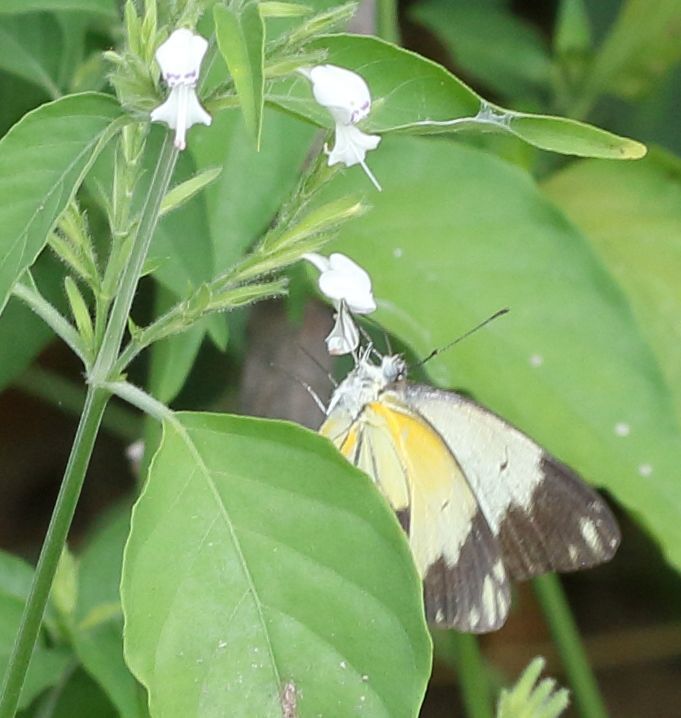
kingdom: Animalia
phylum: Arthropoda
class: Insecta
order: Lepidoptera
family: Pieridae
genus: Belenois
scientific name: Belenois creona
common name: African caper white
